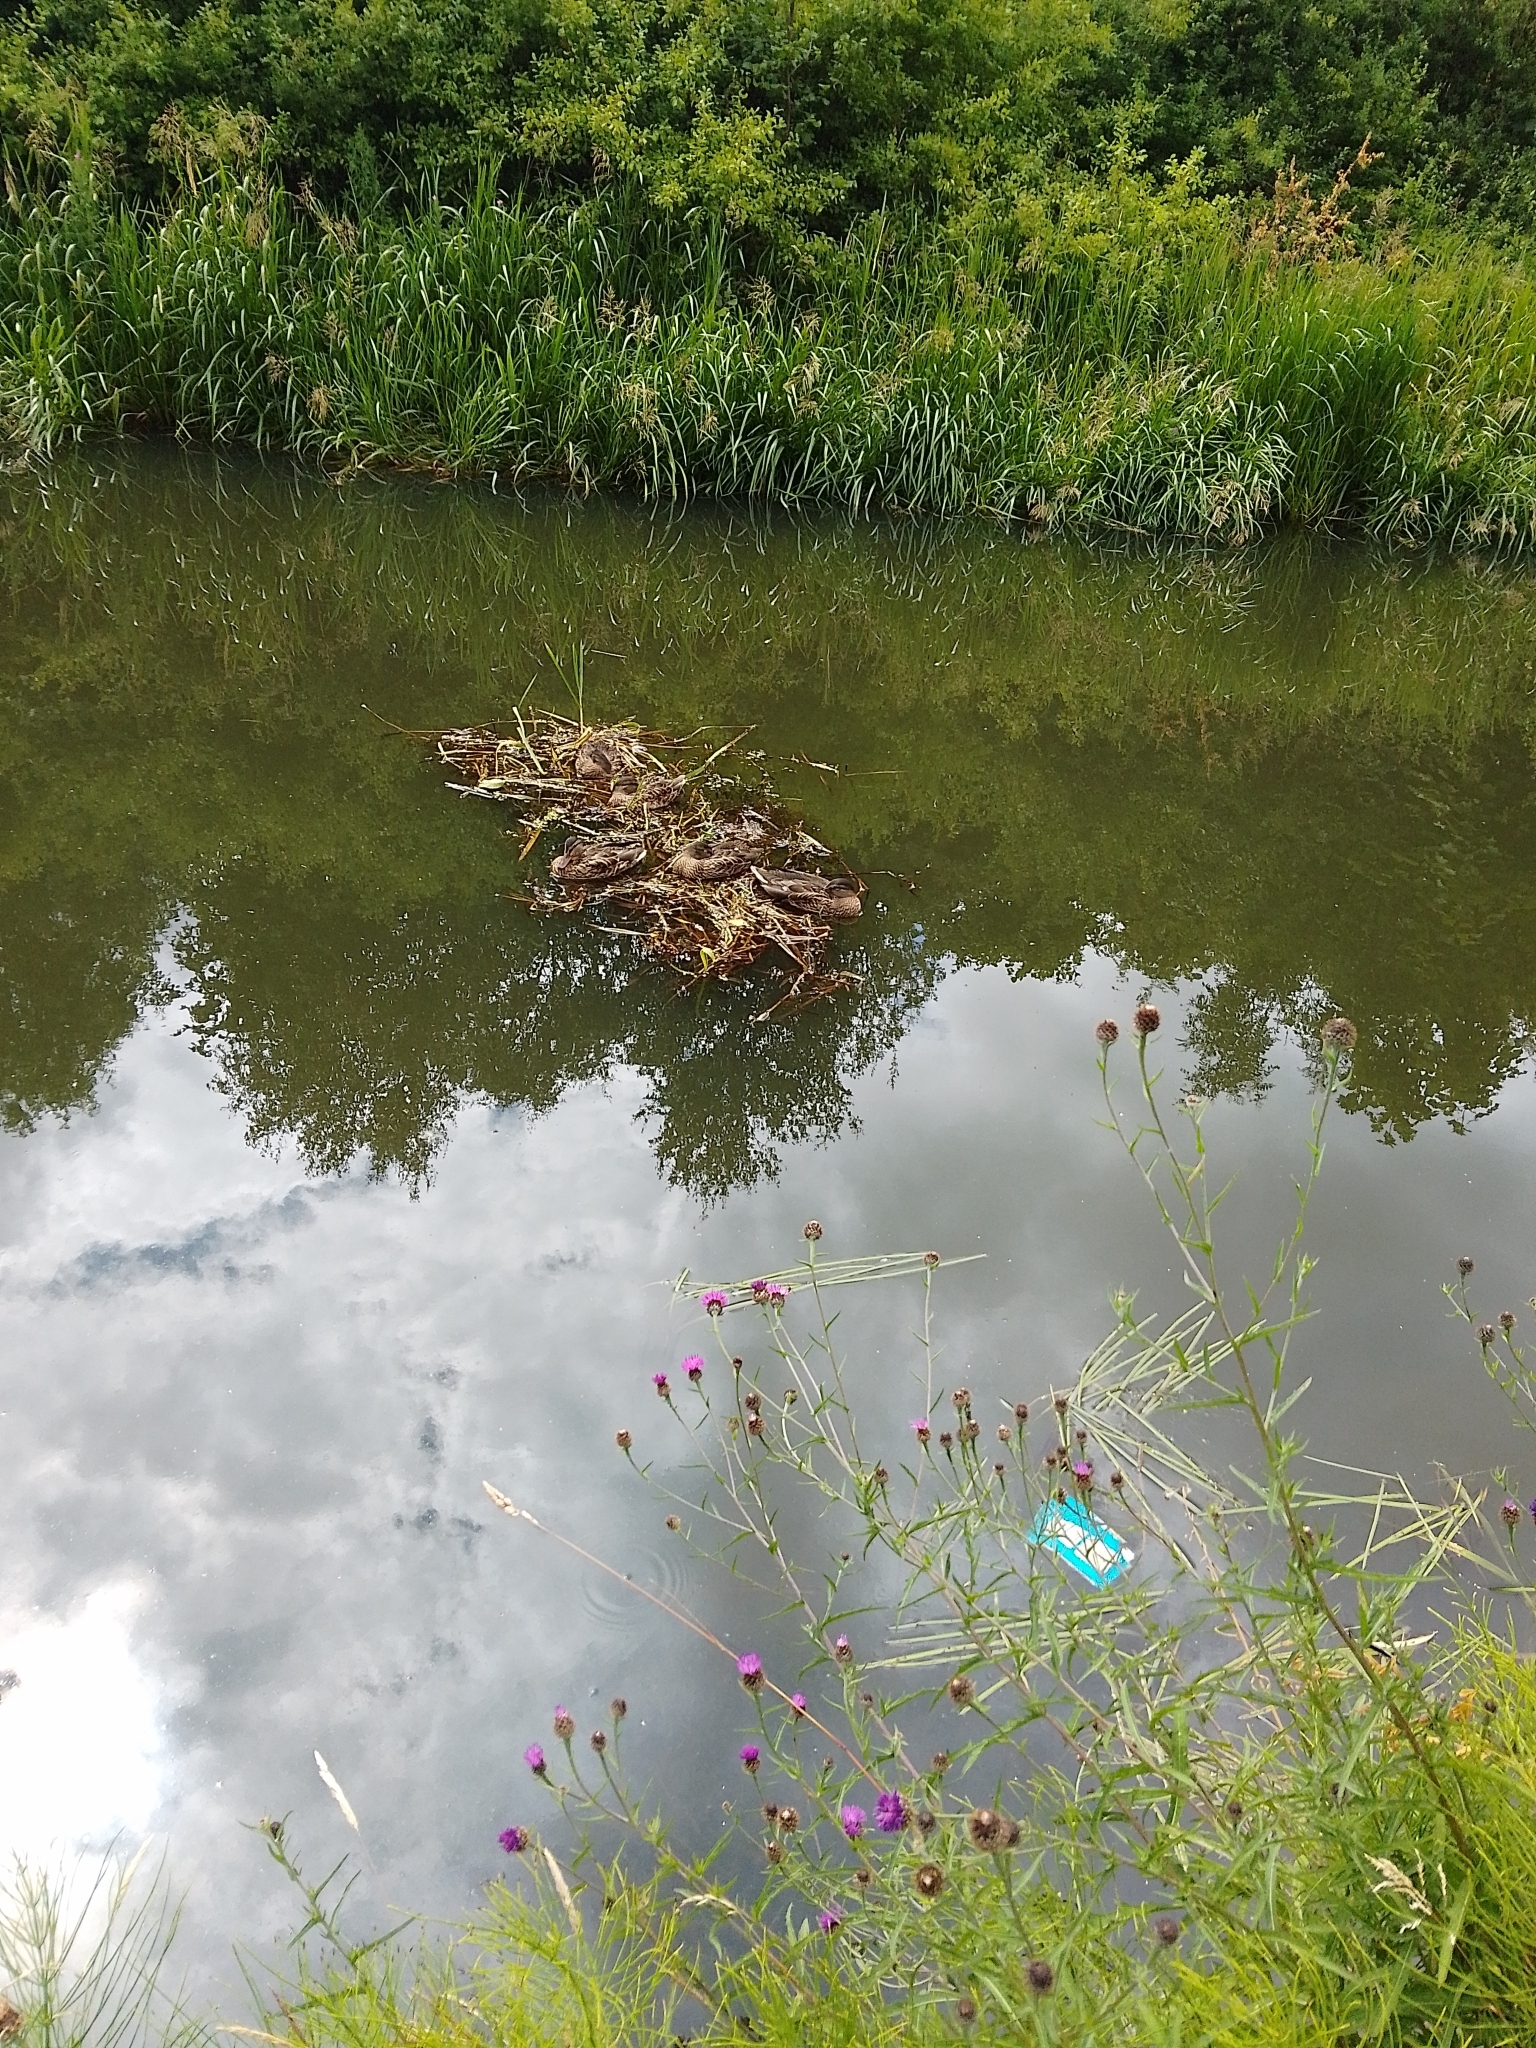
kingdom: Animalia
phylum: Chordata
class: Aves
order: Anseriformes
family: Anatidae
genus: Anas
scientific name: Anas platyrhynchos
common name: Mallard
